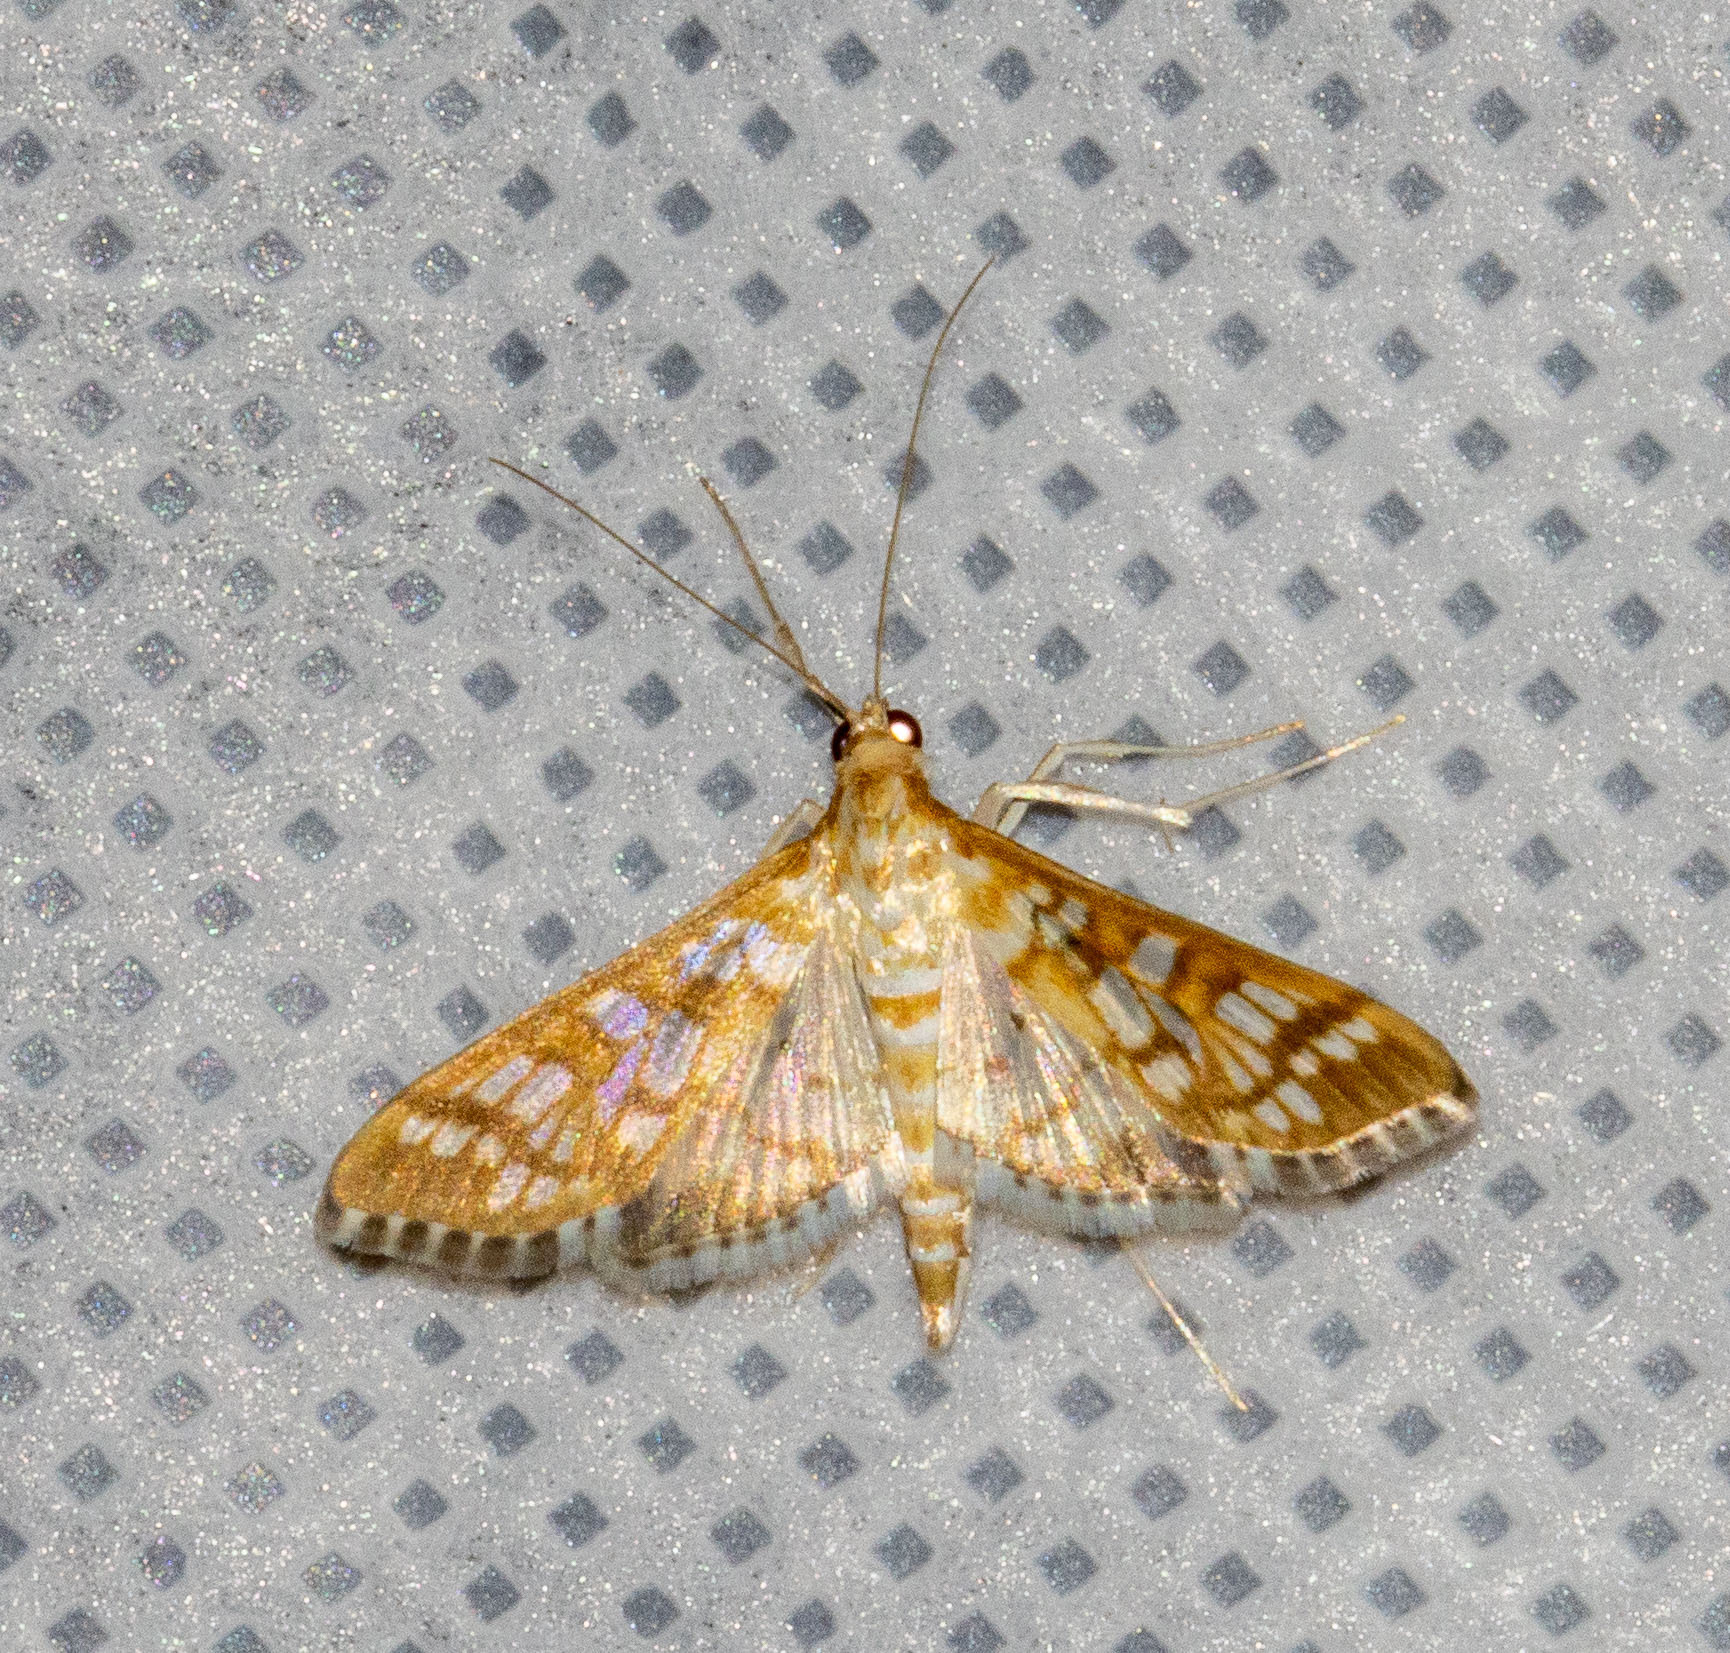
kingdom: Animalia
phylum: Arthropoda
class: Insecta
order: Lepidoptera
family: Crambidae
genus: Epipagis
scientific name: Epipagis fenestralis
